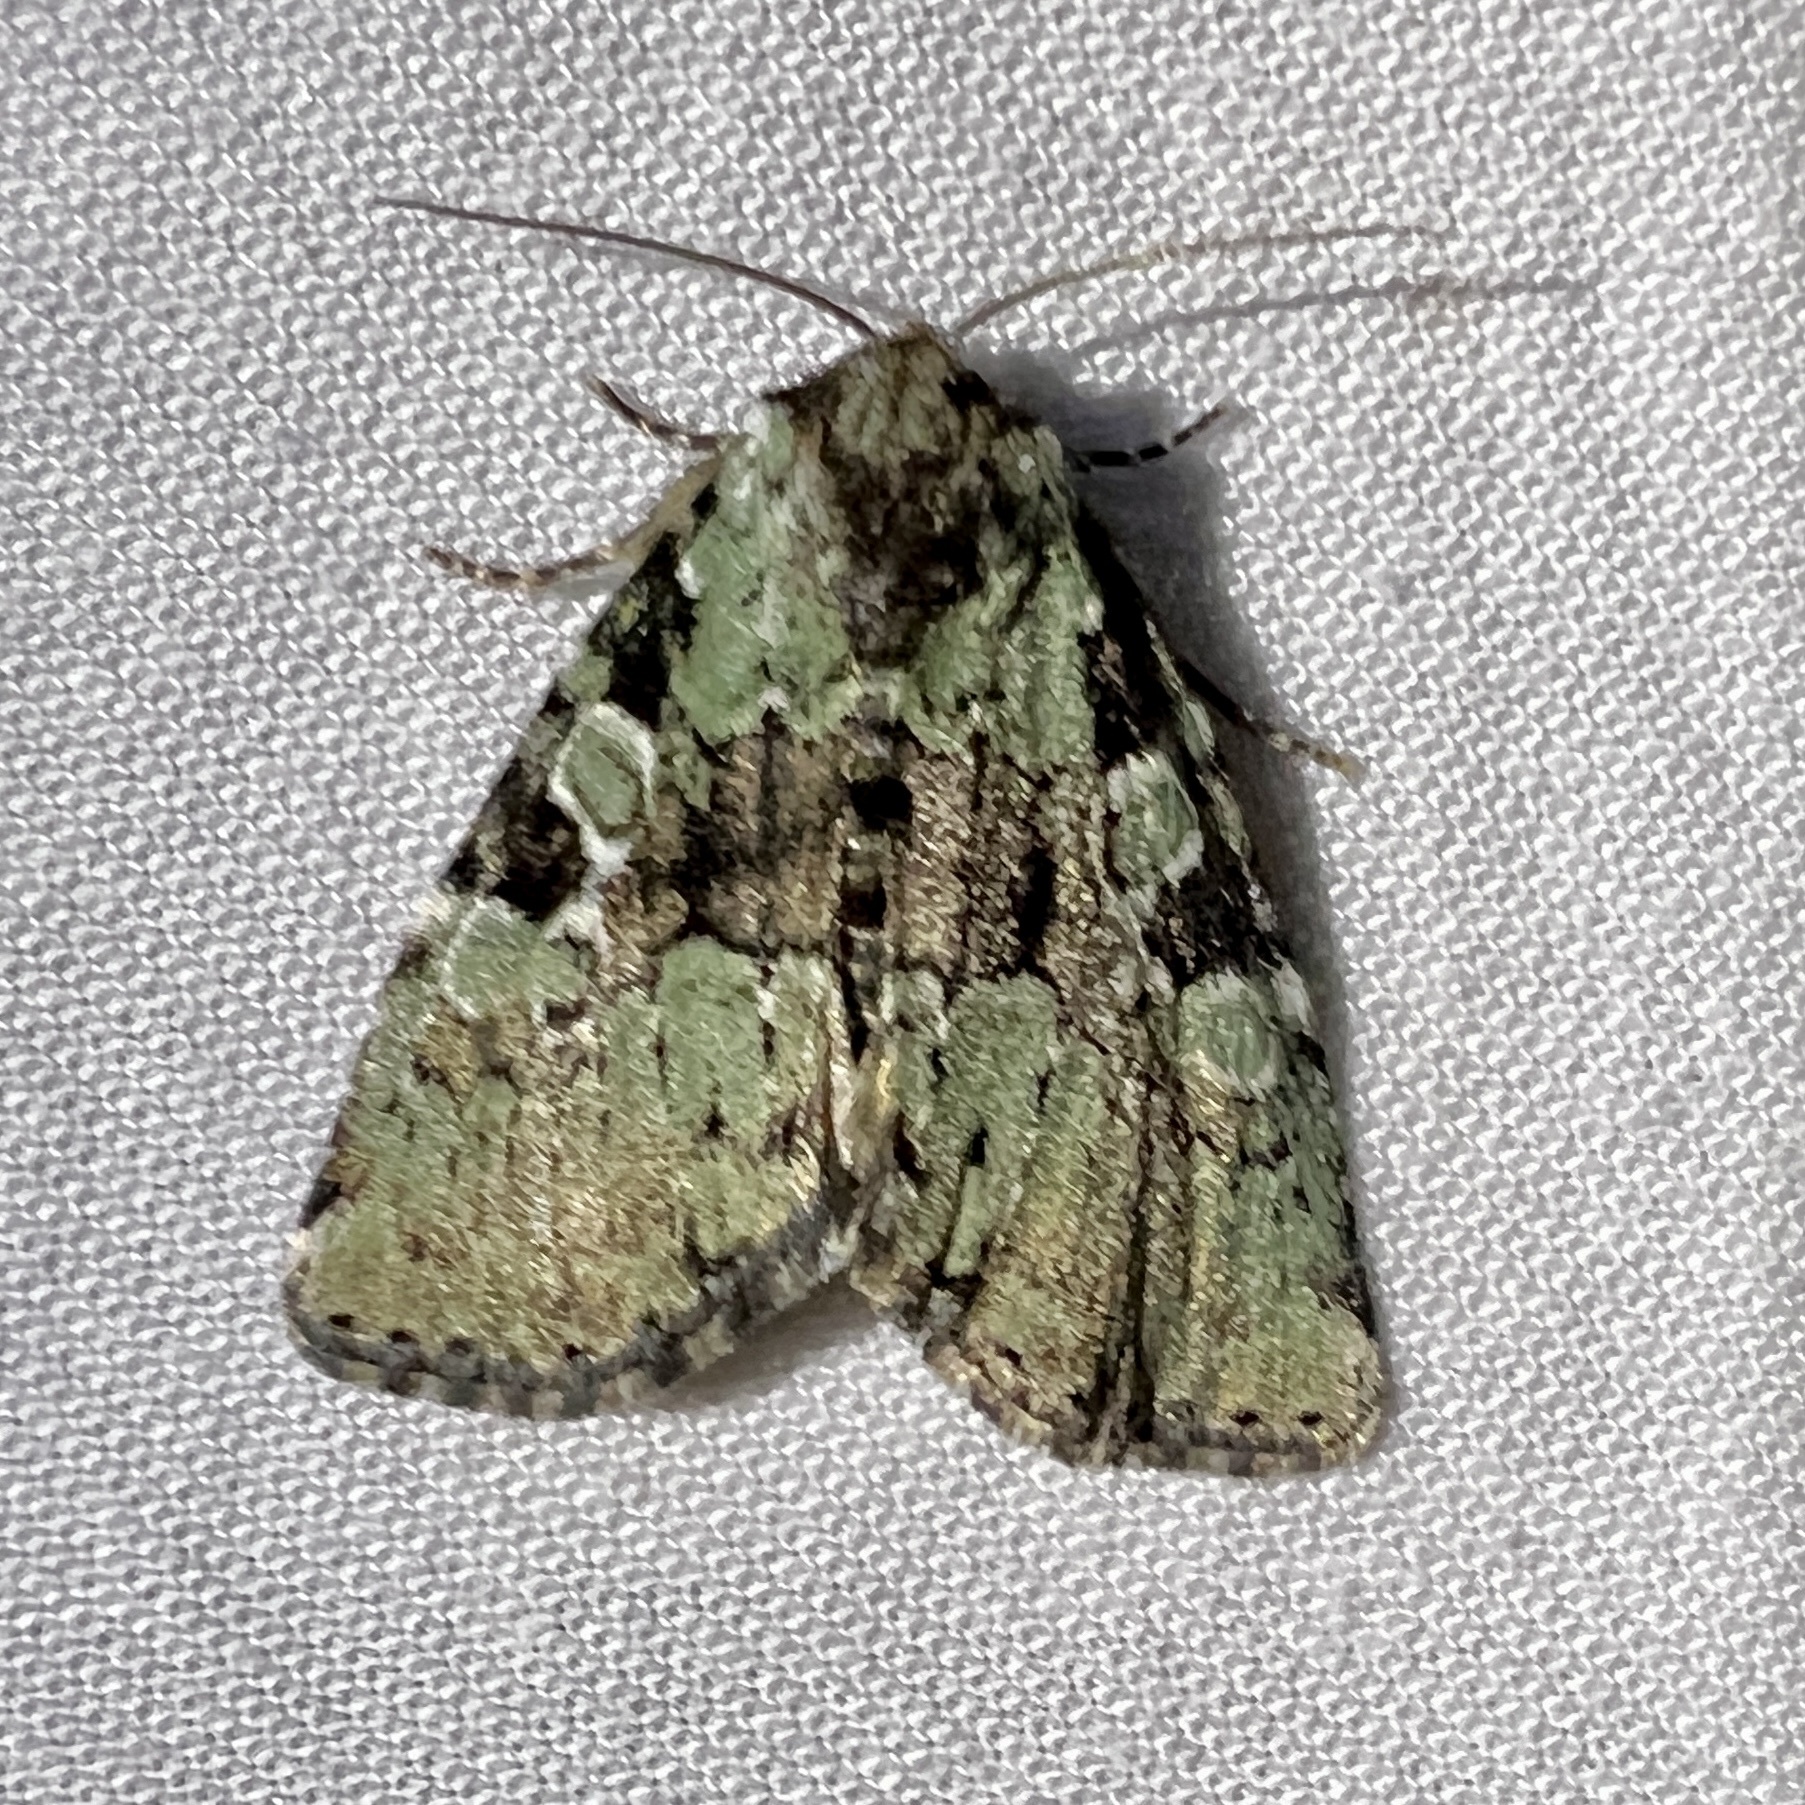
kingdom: Animalia
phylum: Arthropoda
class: Insecta
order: Lepidoptera
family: Noctuidae
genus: Leuconycta
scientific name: Leuconycta lepidula
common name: Marbled-green leuconycta moth
